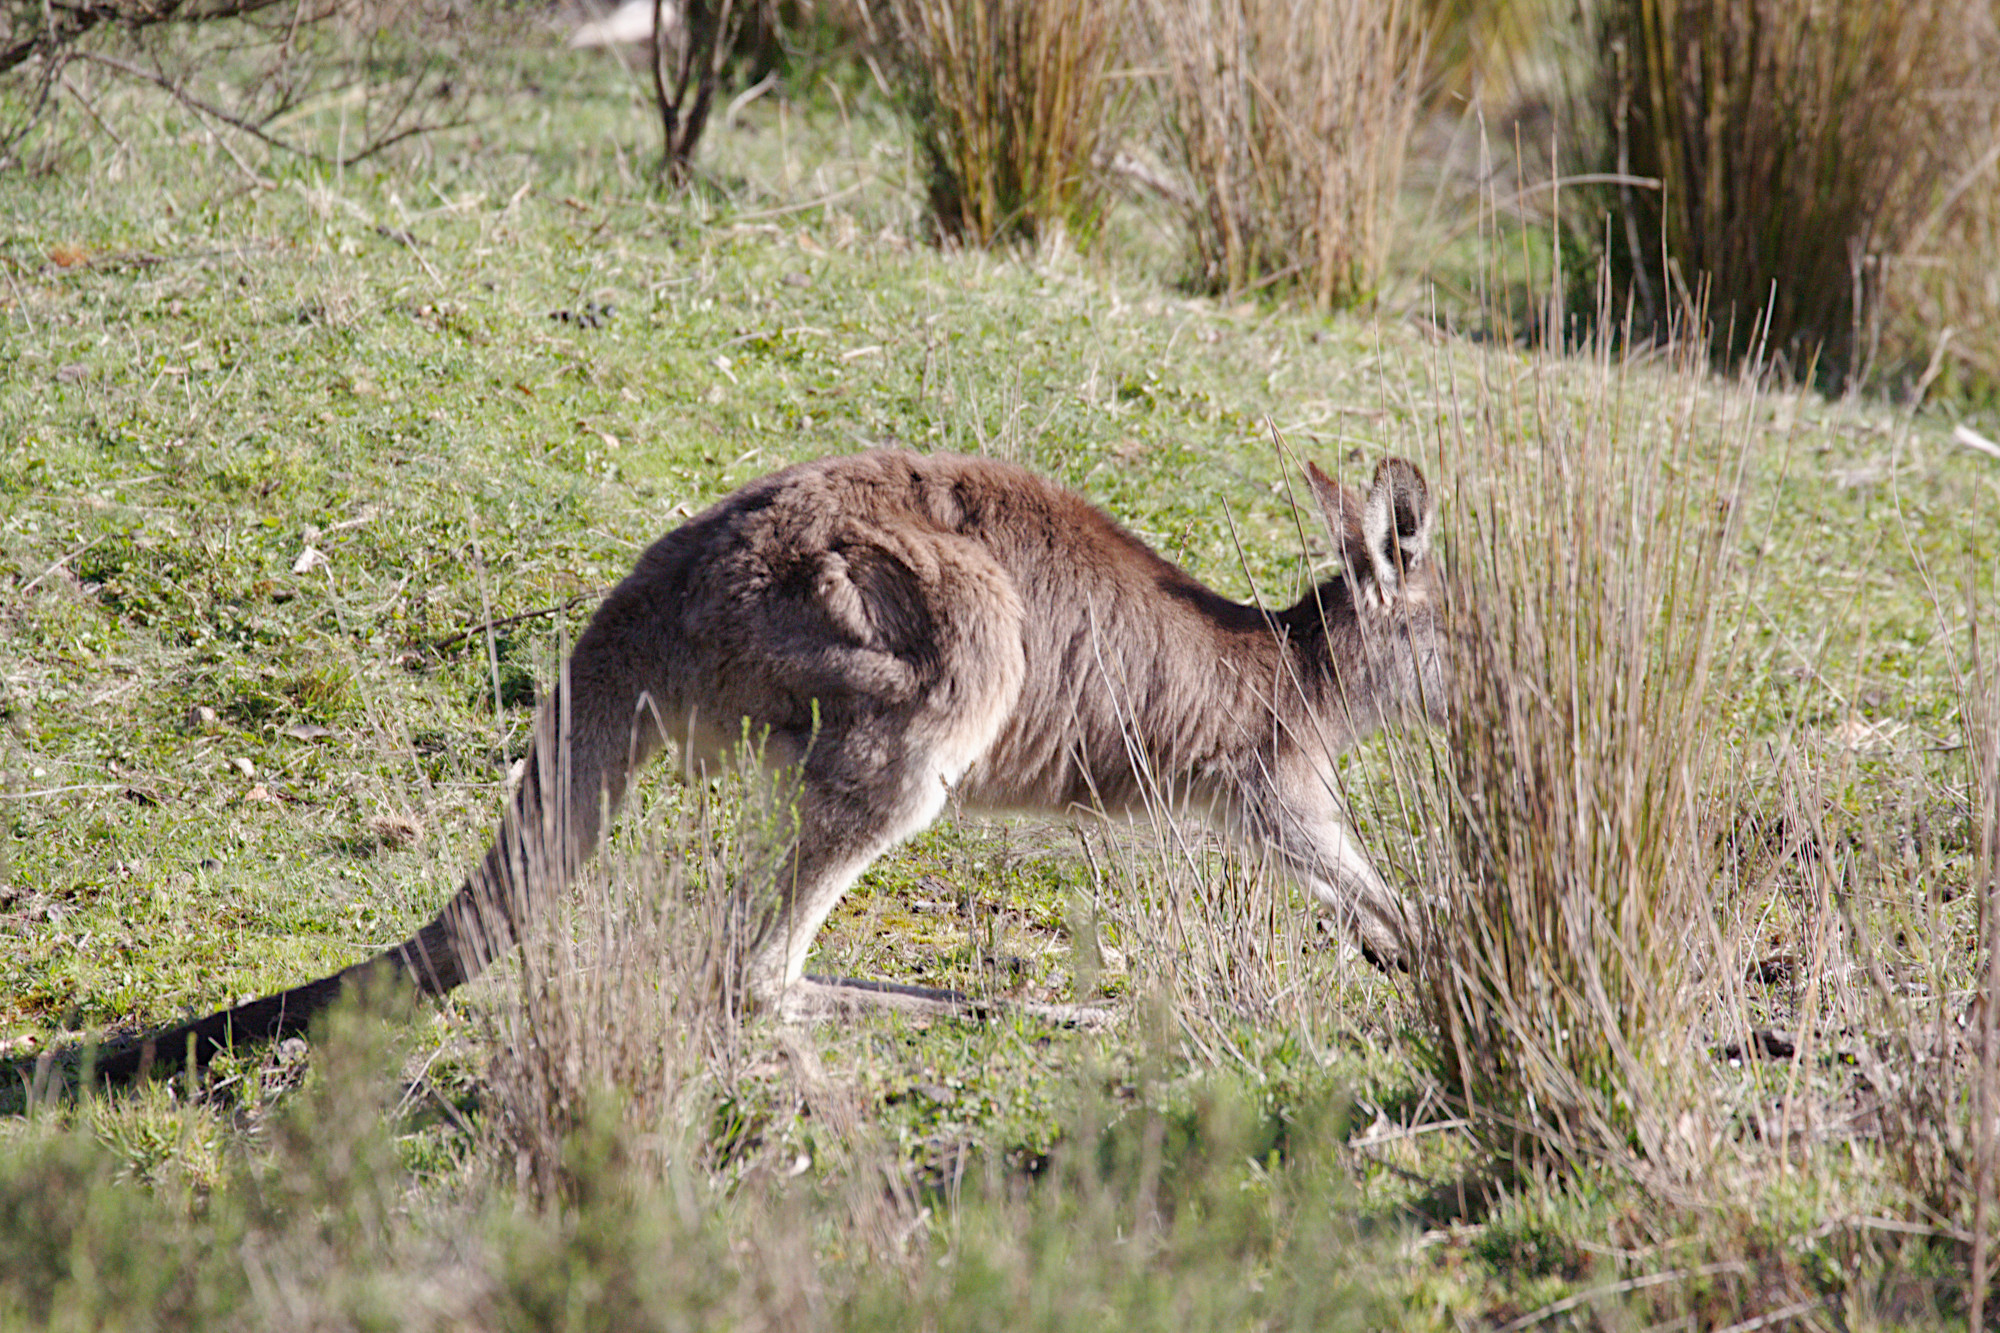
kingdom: Animalia
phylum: Chordata
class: Mammalia
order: Diprotodontia
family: Macropodidae
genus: Macropus
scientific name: Macropus giganteus
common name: Eastern grey kangaroo
